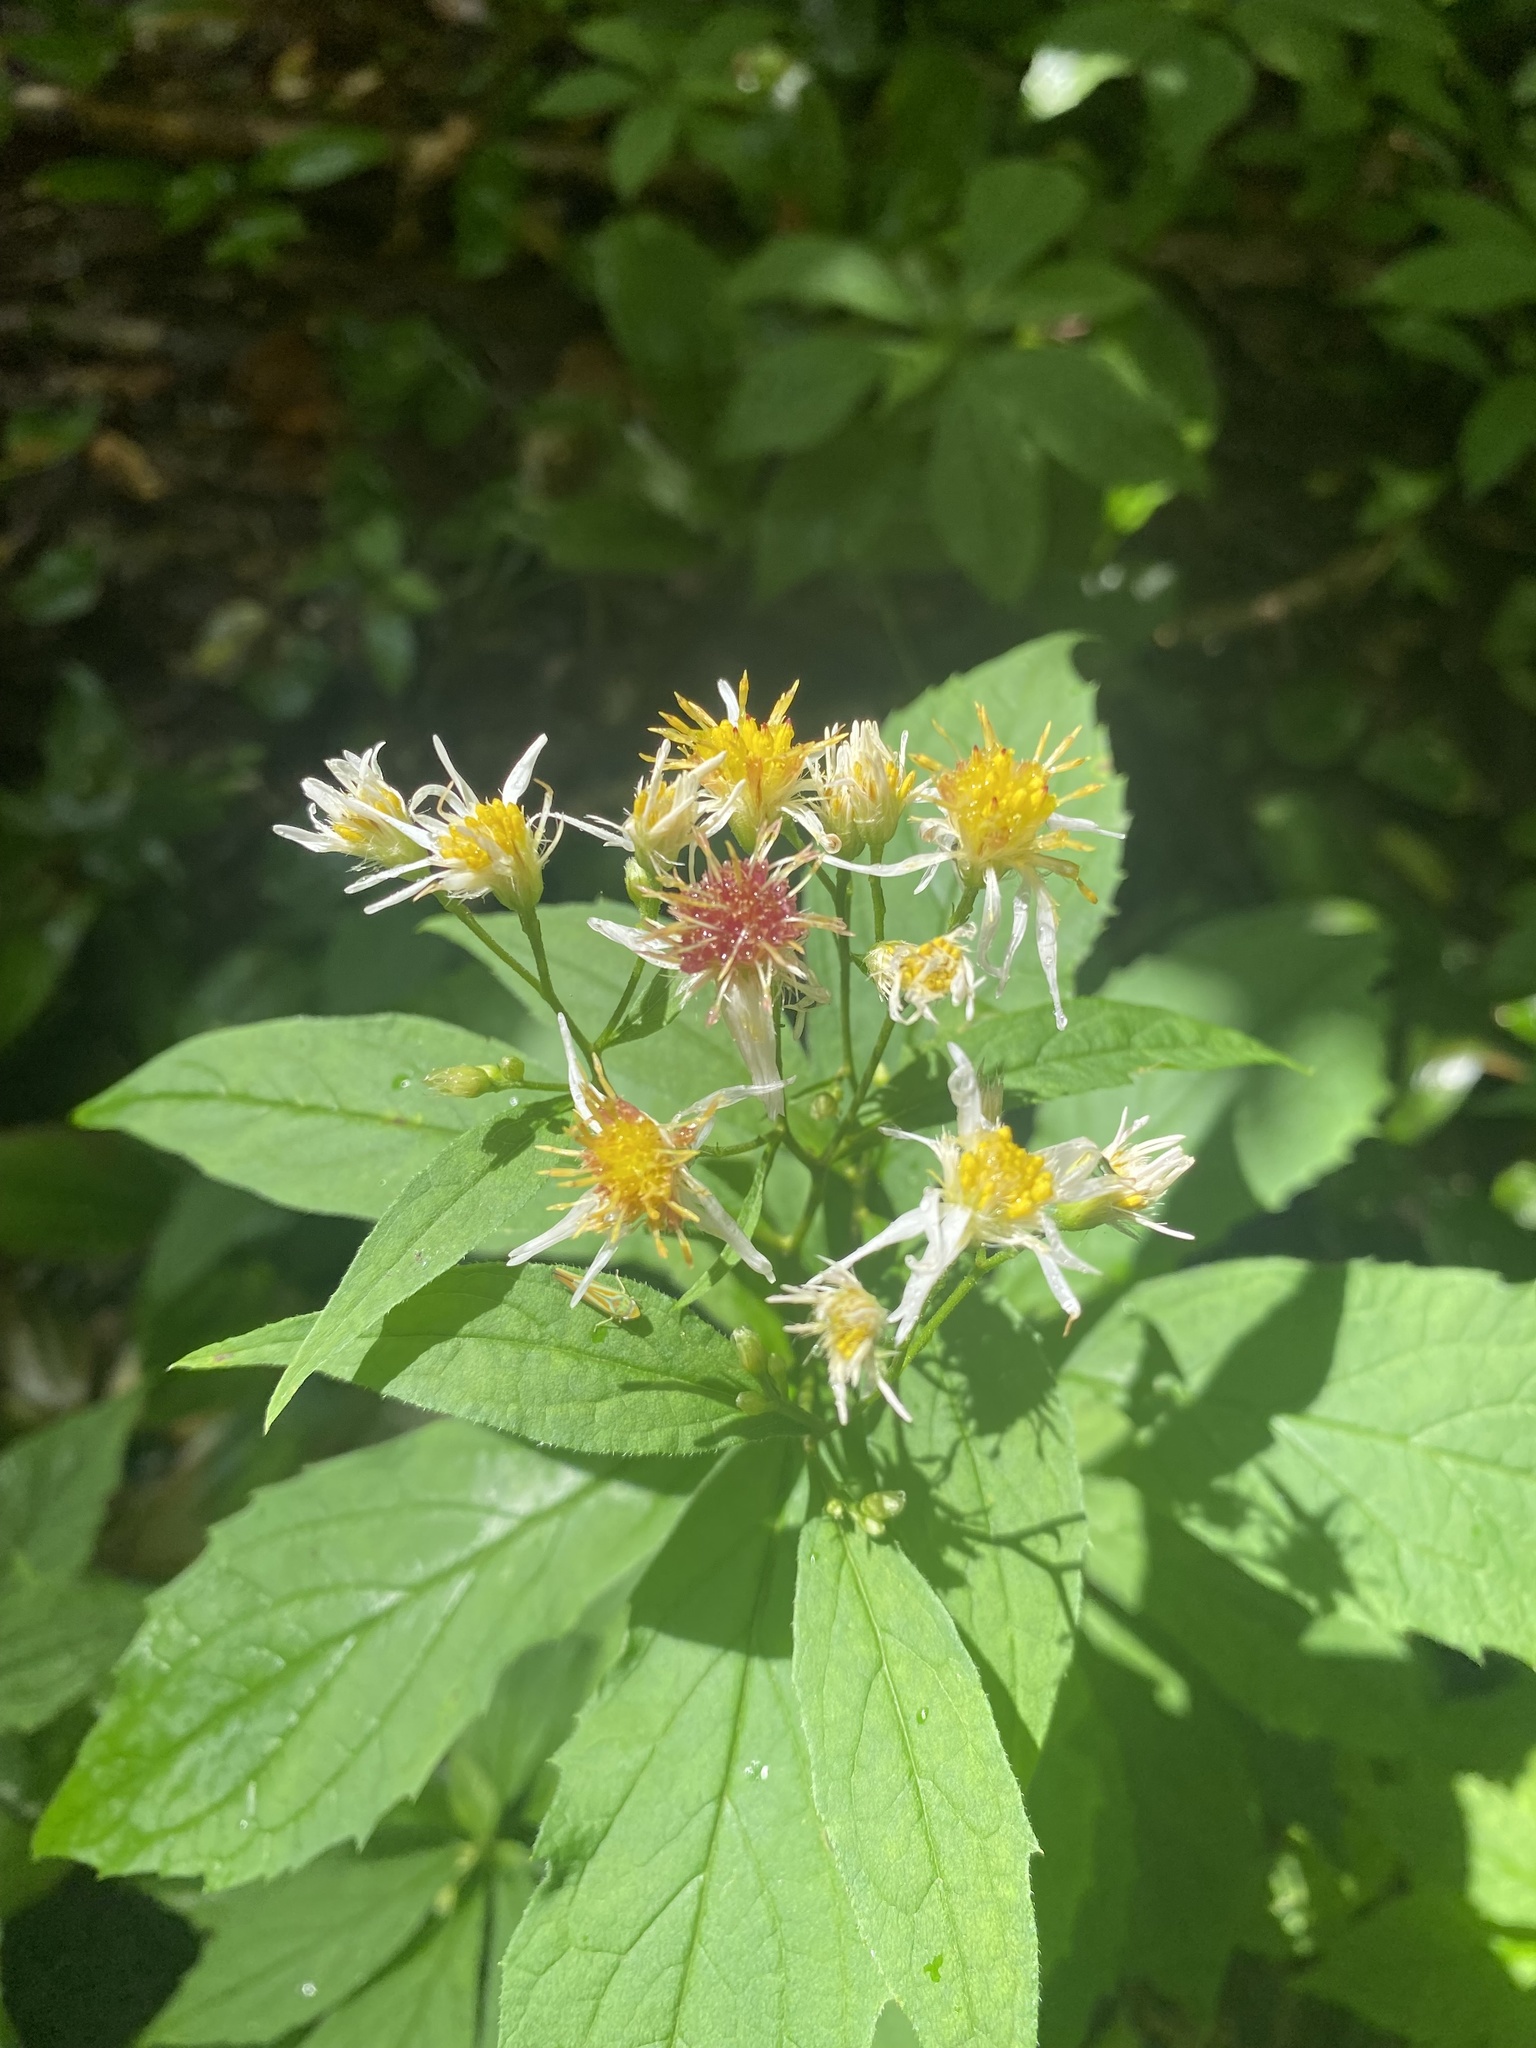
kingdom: Plantae
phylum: Tracheophyta
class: Magnoliopsida
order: Asterales
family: Asteraceae
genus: Oclemena
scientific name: Oclemena acuminata
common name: Mountain aster
